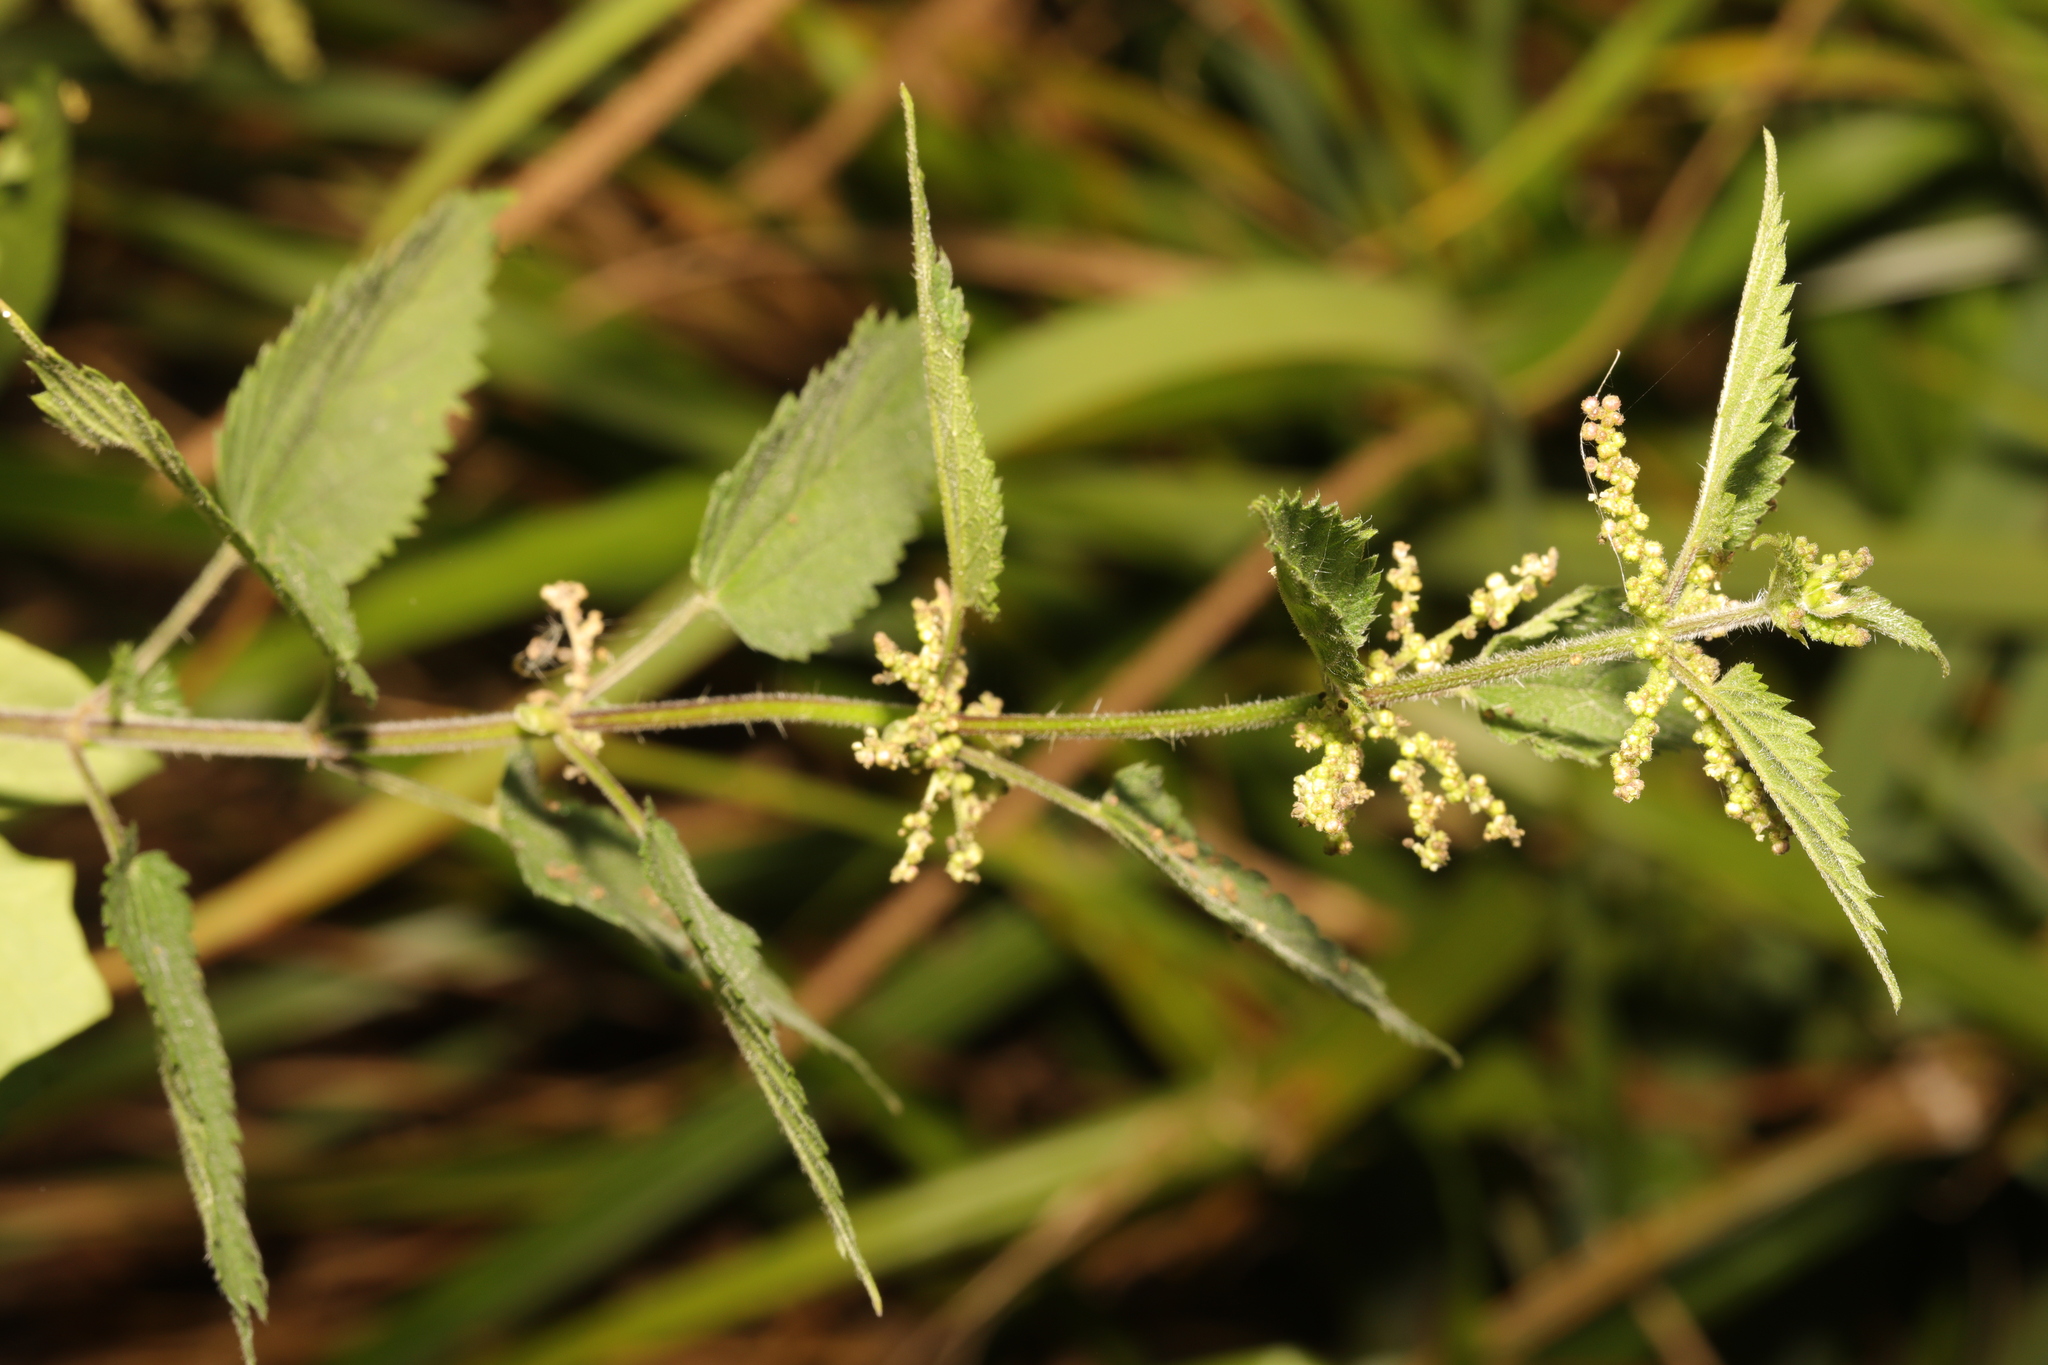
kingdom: Plantae
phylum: Tracheophyta
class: Magnoliopsida
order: Rosales
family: Urticaceae
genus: Urtica
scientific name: Urtica dioica
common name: Common nettle
